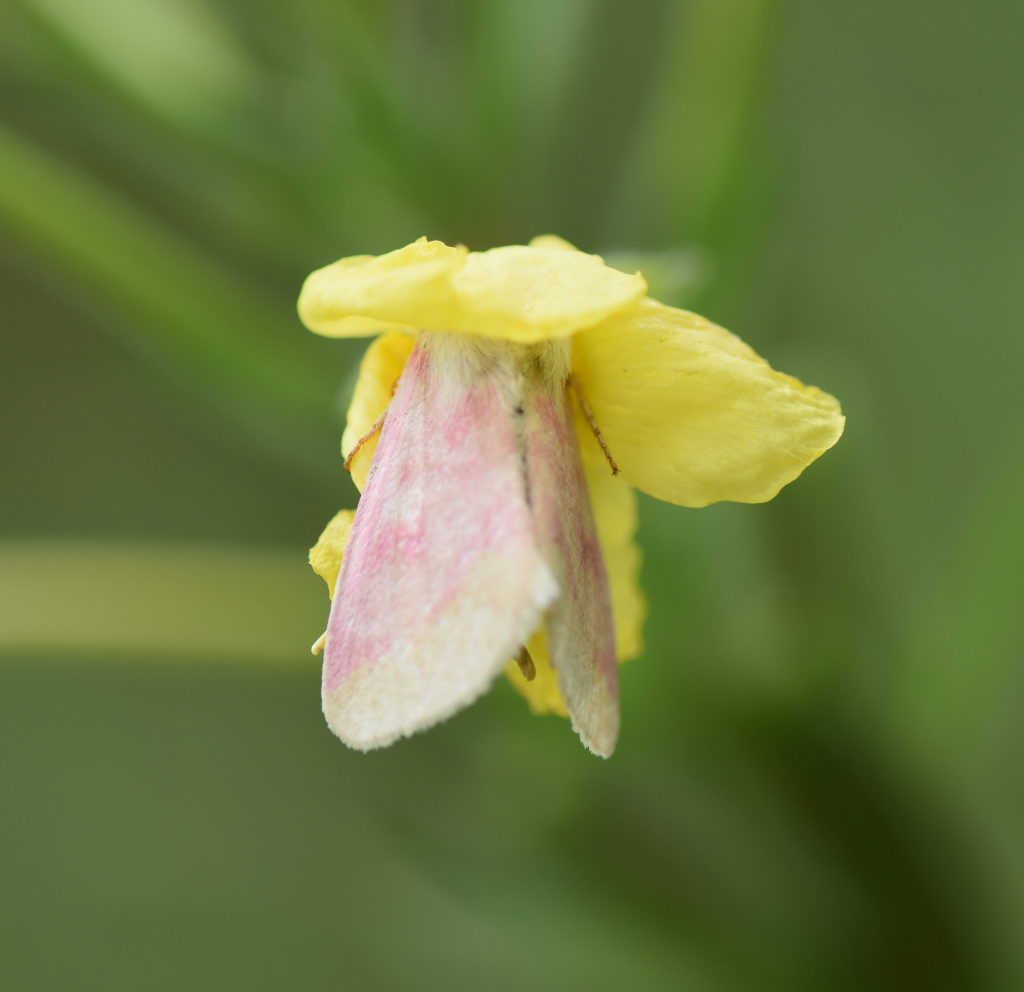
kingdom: Animalia
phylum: Arthropoda
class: Insecta
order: Lepidoptera
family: Noctuidae
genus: Schinia
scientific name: Schinia florida
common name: Primrose moth
